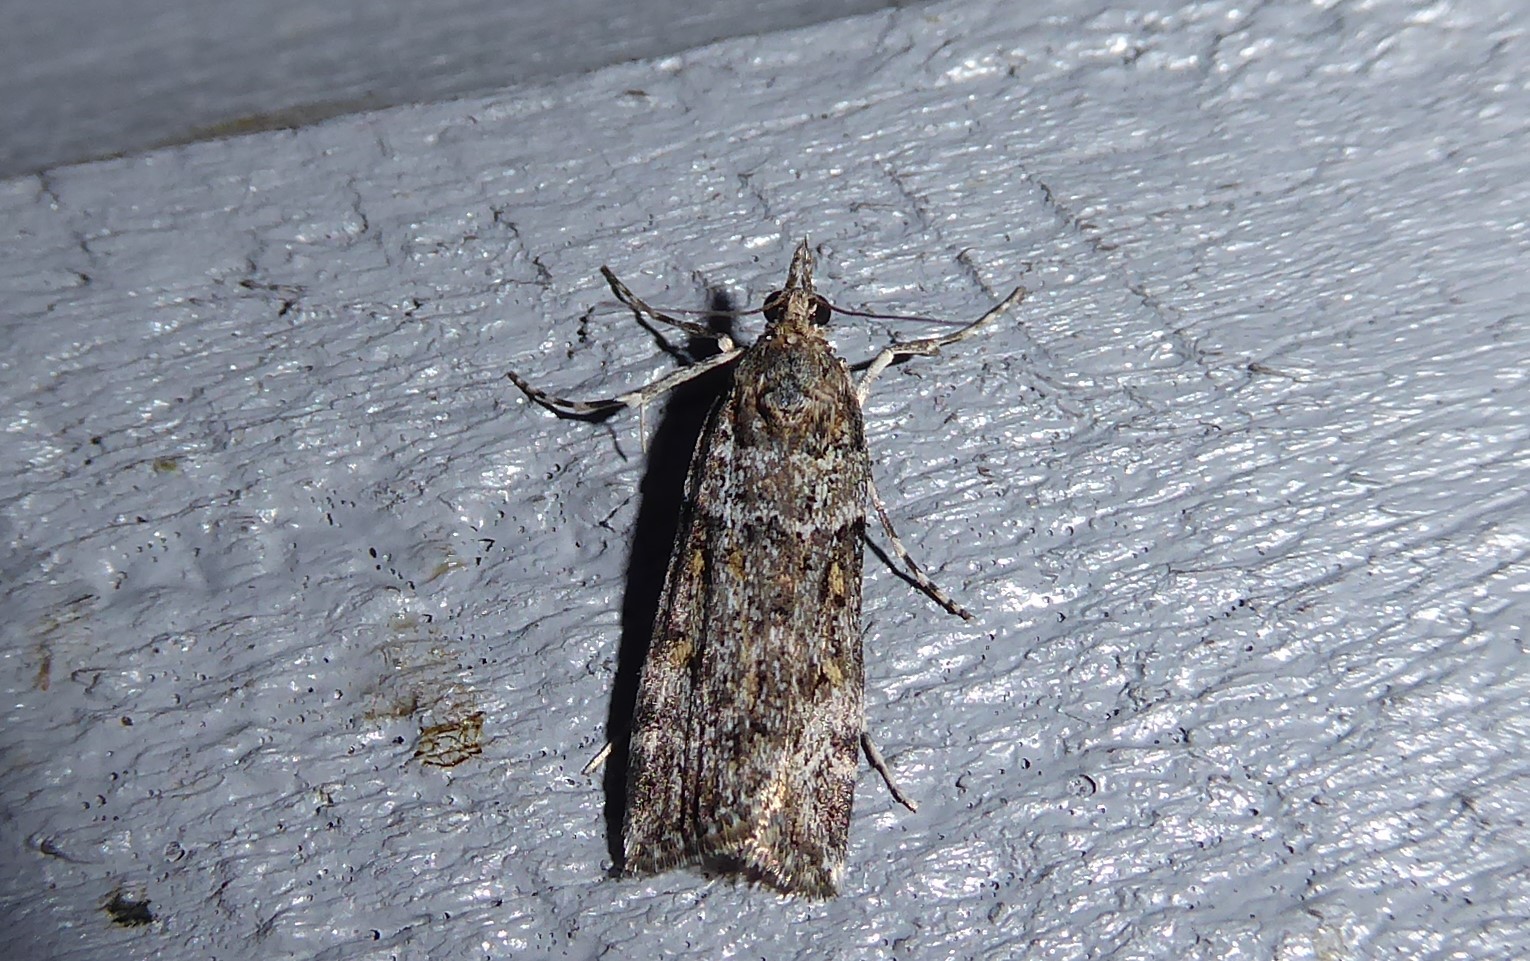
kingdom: Animalia
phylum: Arthropoda
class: Insecta
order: Lepidoptera
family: Crambidae
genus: Scoparia
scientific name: Scoparia tetracycla
